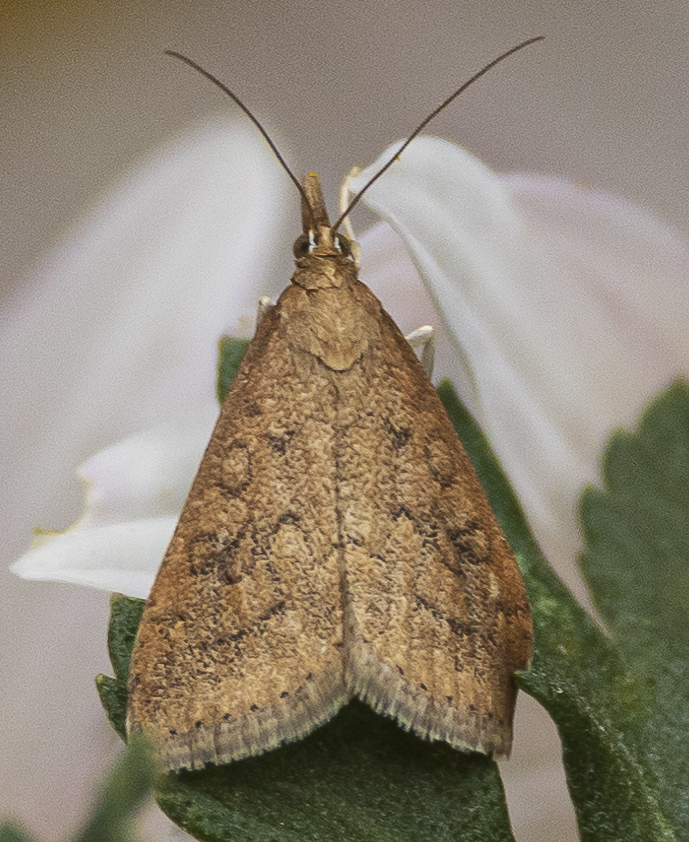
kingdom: Animalia
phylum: Arthropoda
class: Insecta
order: Lepidoptera
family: Crambidae
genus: Udea
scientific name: Udea rubigalis
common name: Celery leaftier moth
